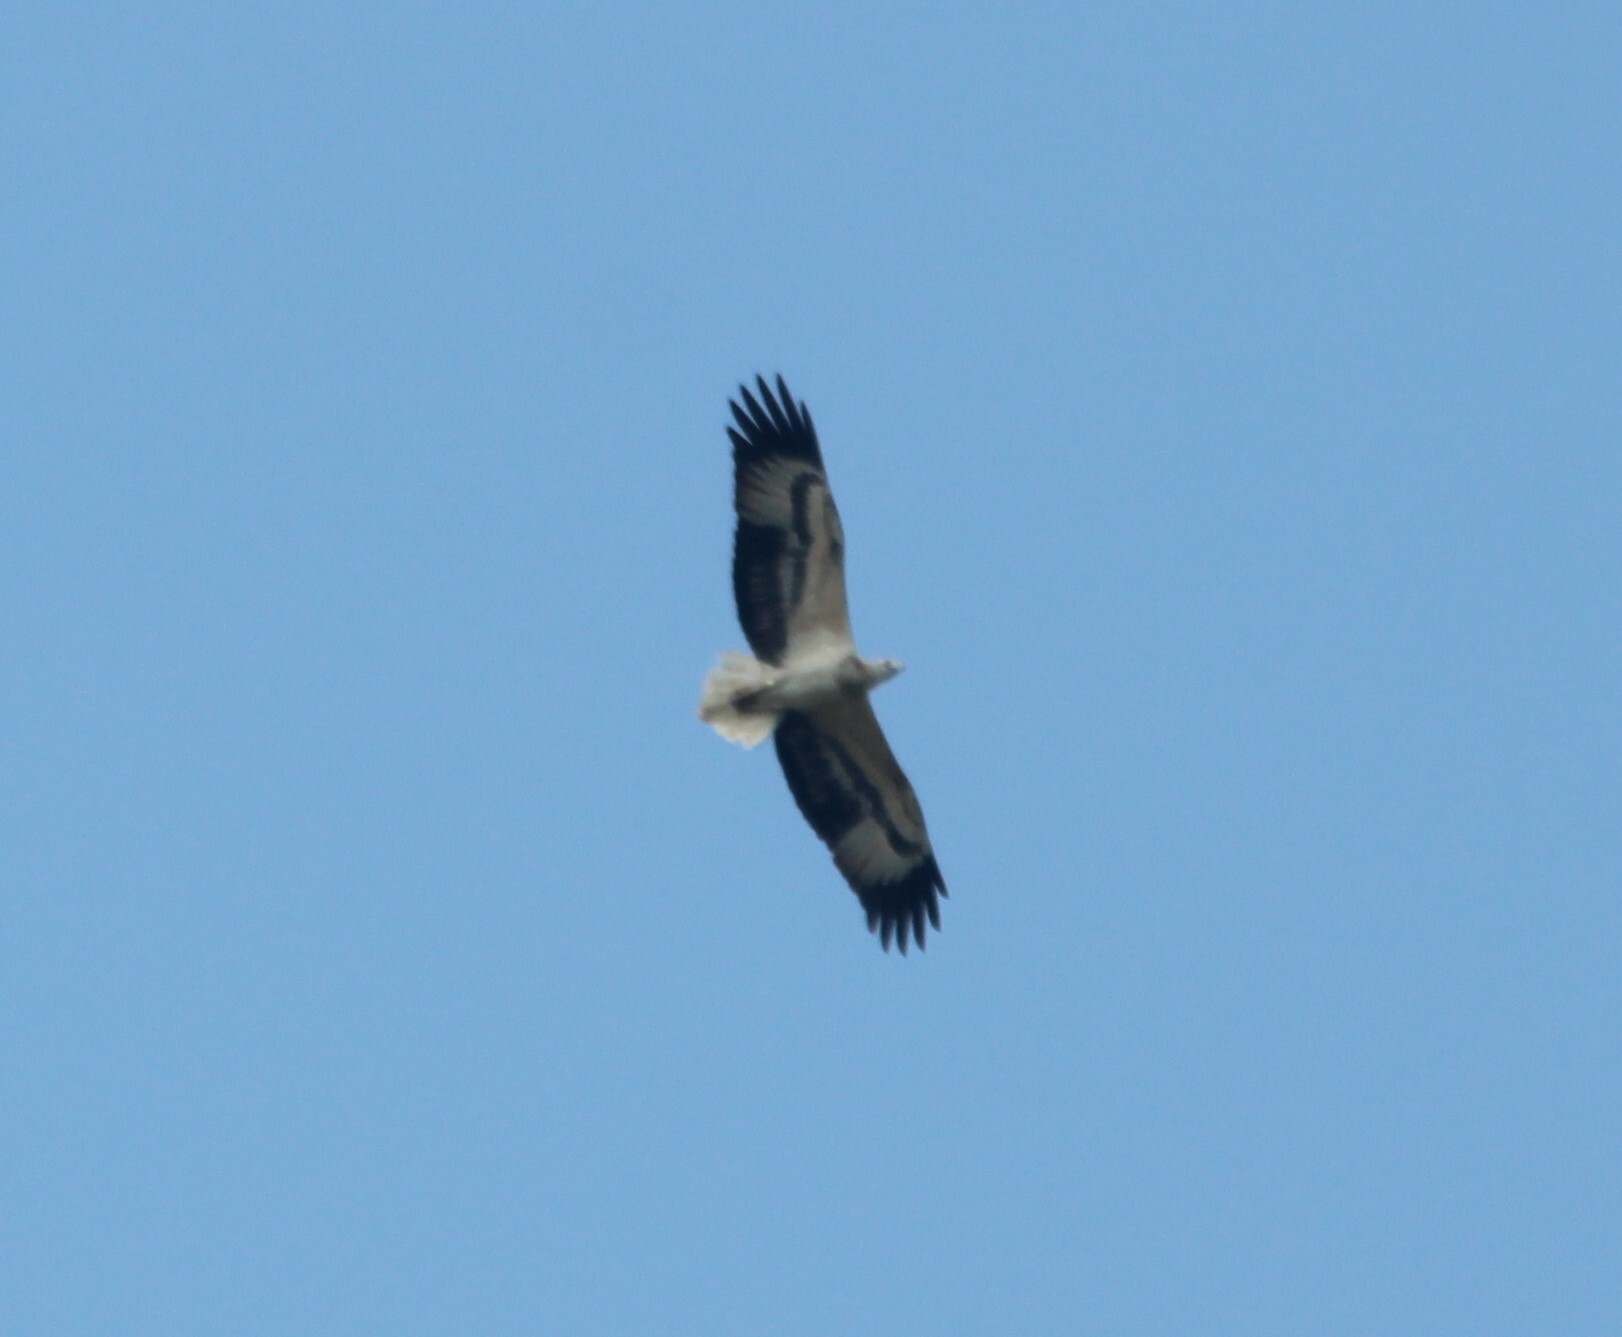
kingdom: Animalia
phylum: Chordata
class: Aves
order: Accipitriformes
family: Accipitridae
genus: Haliaeetus
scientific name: Haliaeetus leucogaster
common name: White-bellied sea eagle
